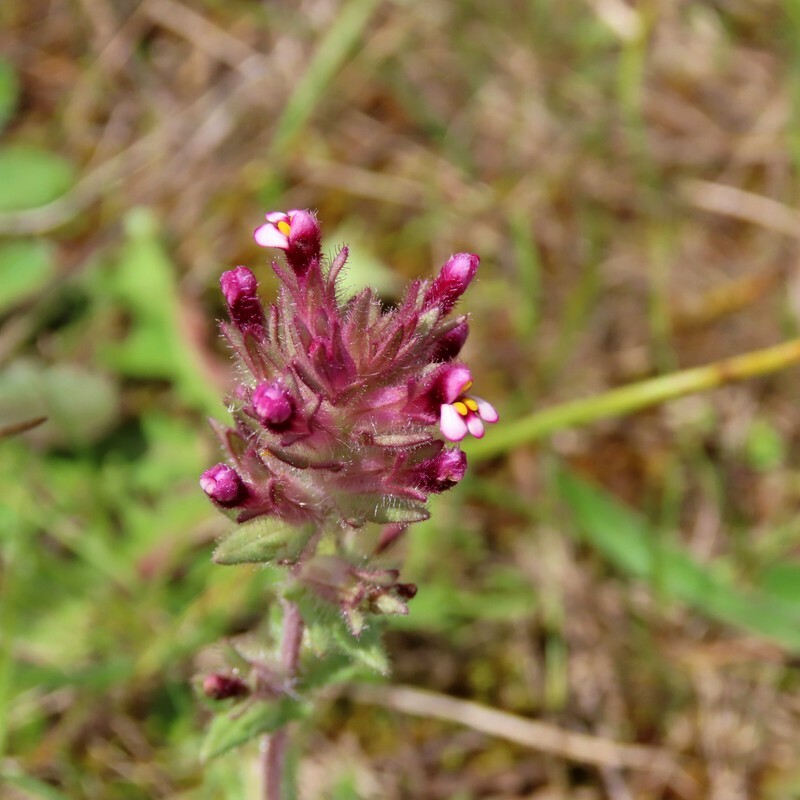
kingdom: Plantae
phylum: Tracheophyta
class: Magnoliopsida
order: Lamiales
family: Orobanchaceae
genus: Parentucellia
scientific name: Parentucellia latifolia
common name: Broadleaf glandweed
